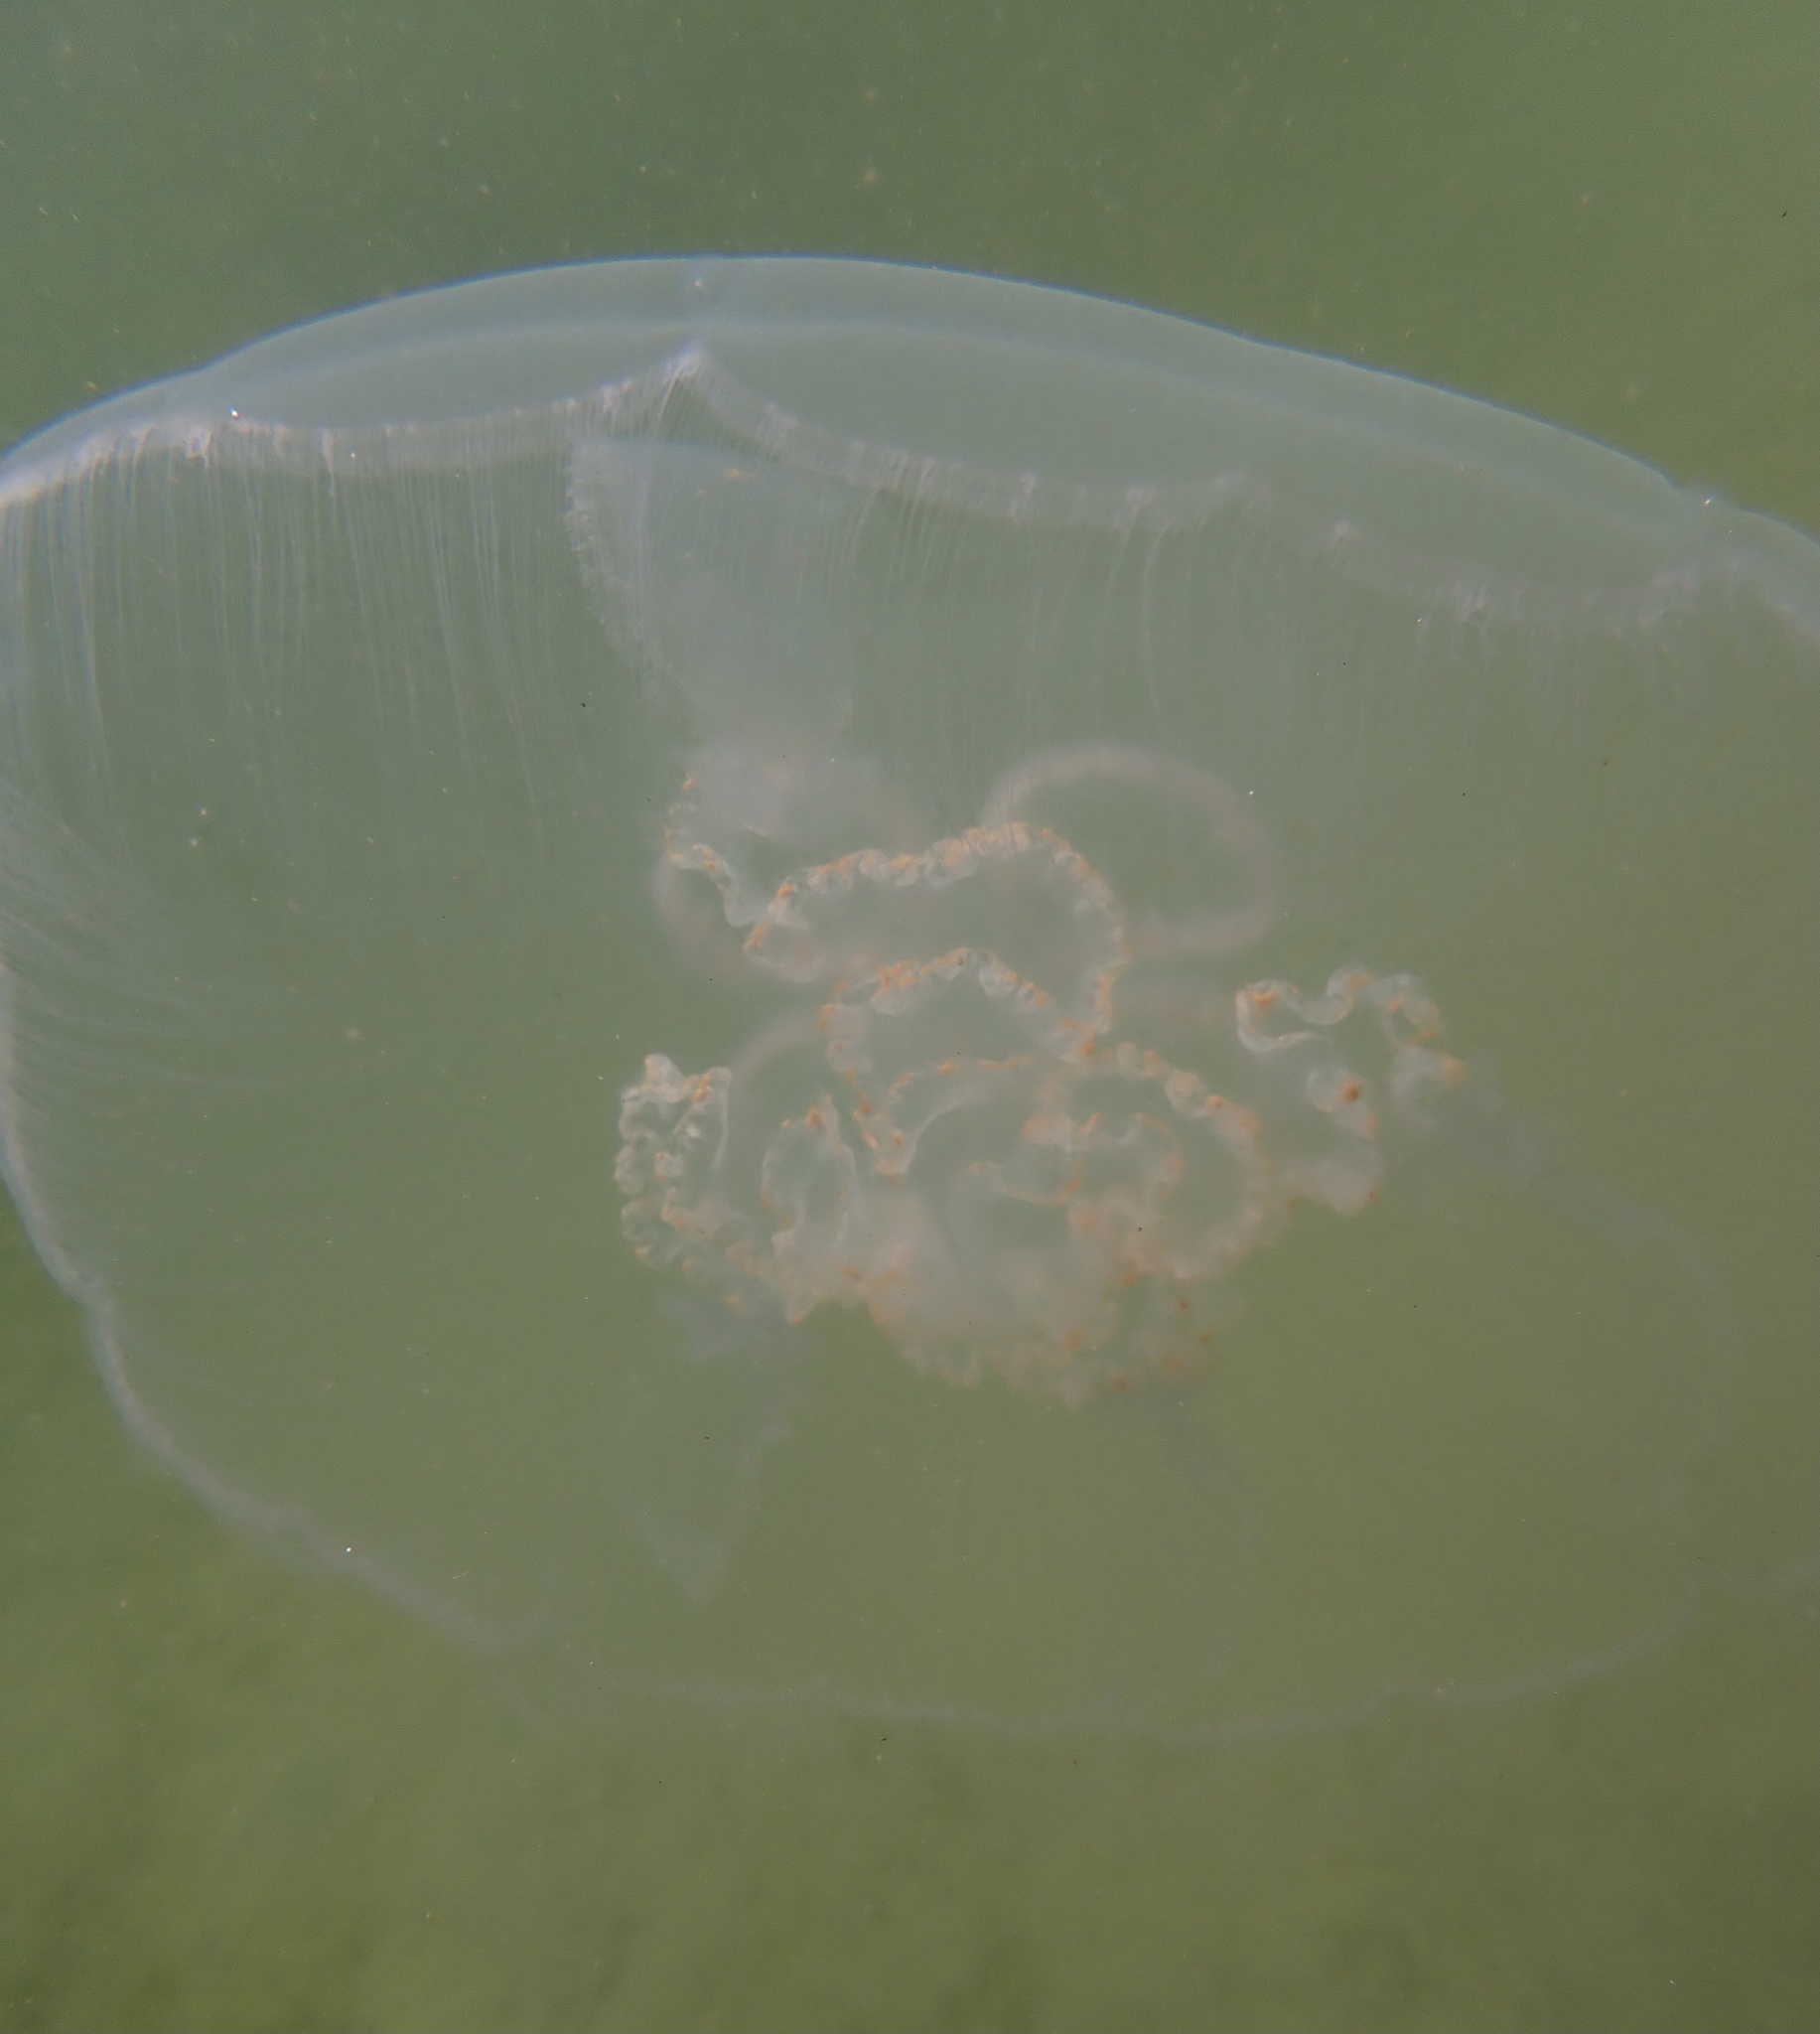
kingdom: Animalia
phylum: Cnidaria
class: Scyphozoa
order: Semaeostomeae
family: Ulmaridae
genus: Aurelia
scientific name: Aurelia aurita
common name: Moon jellyfish
